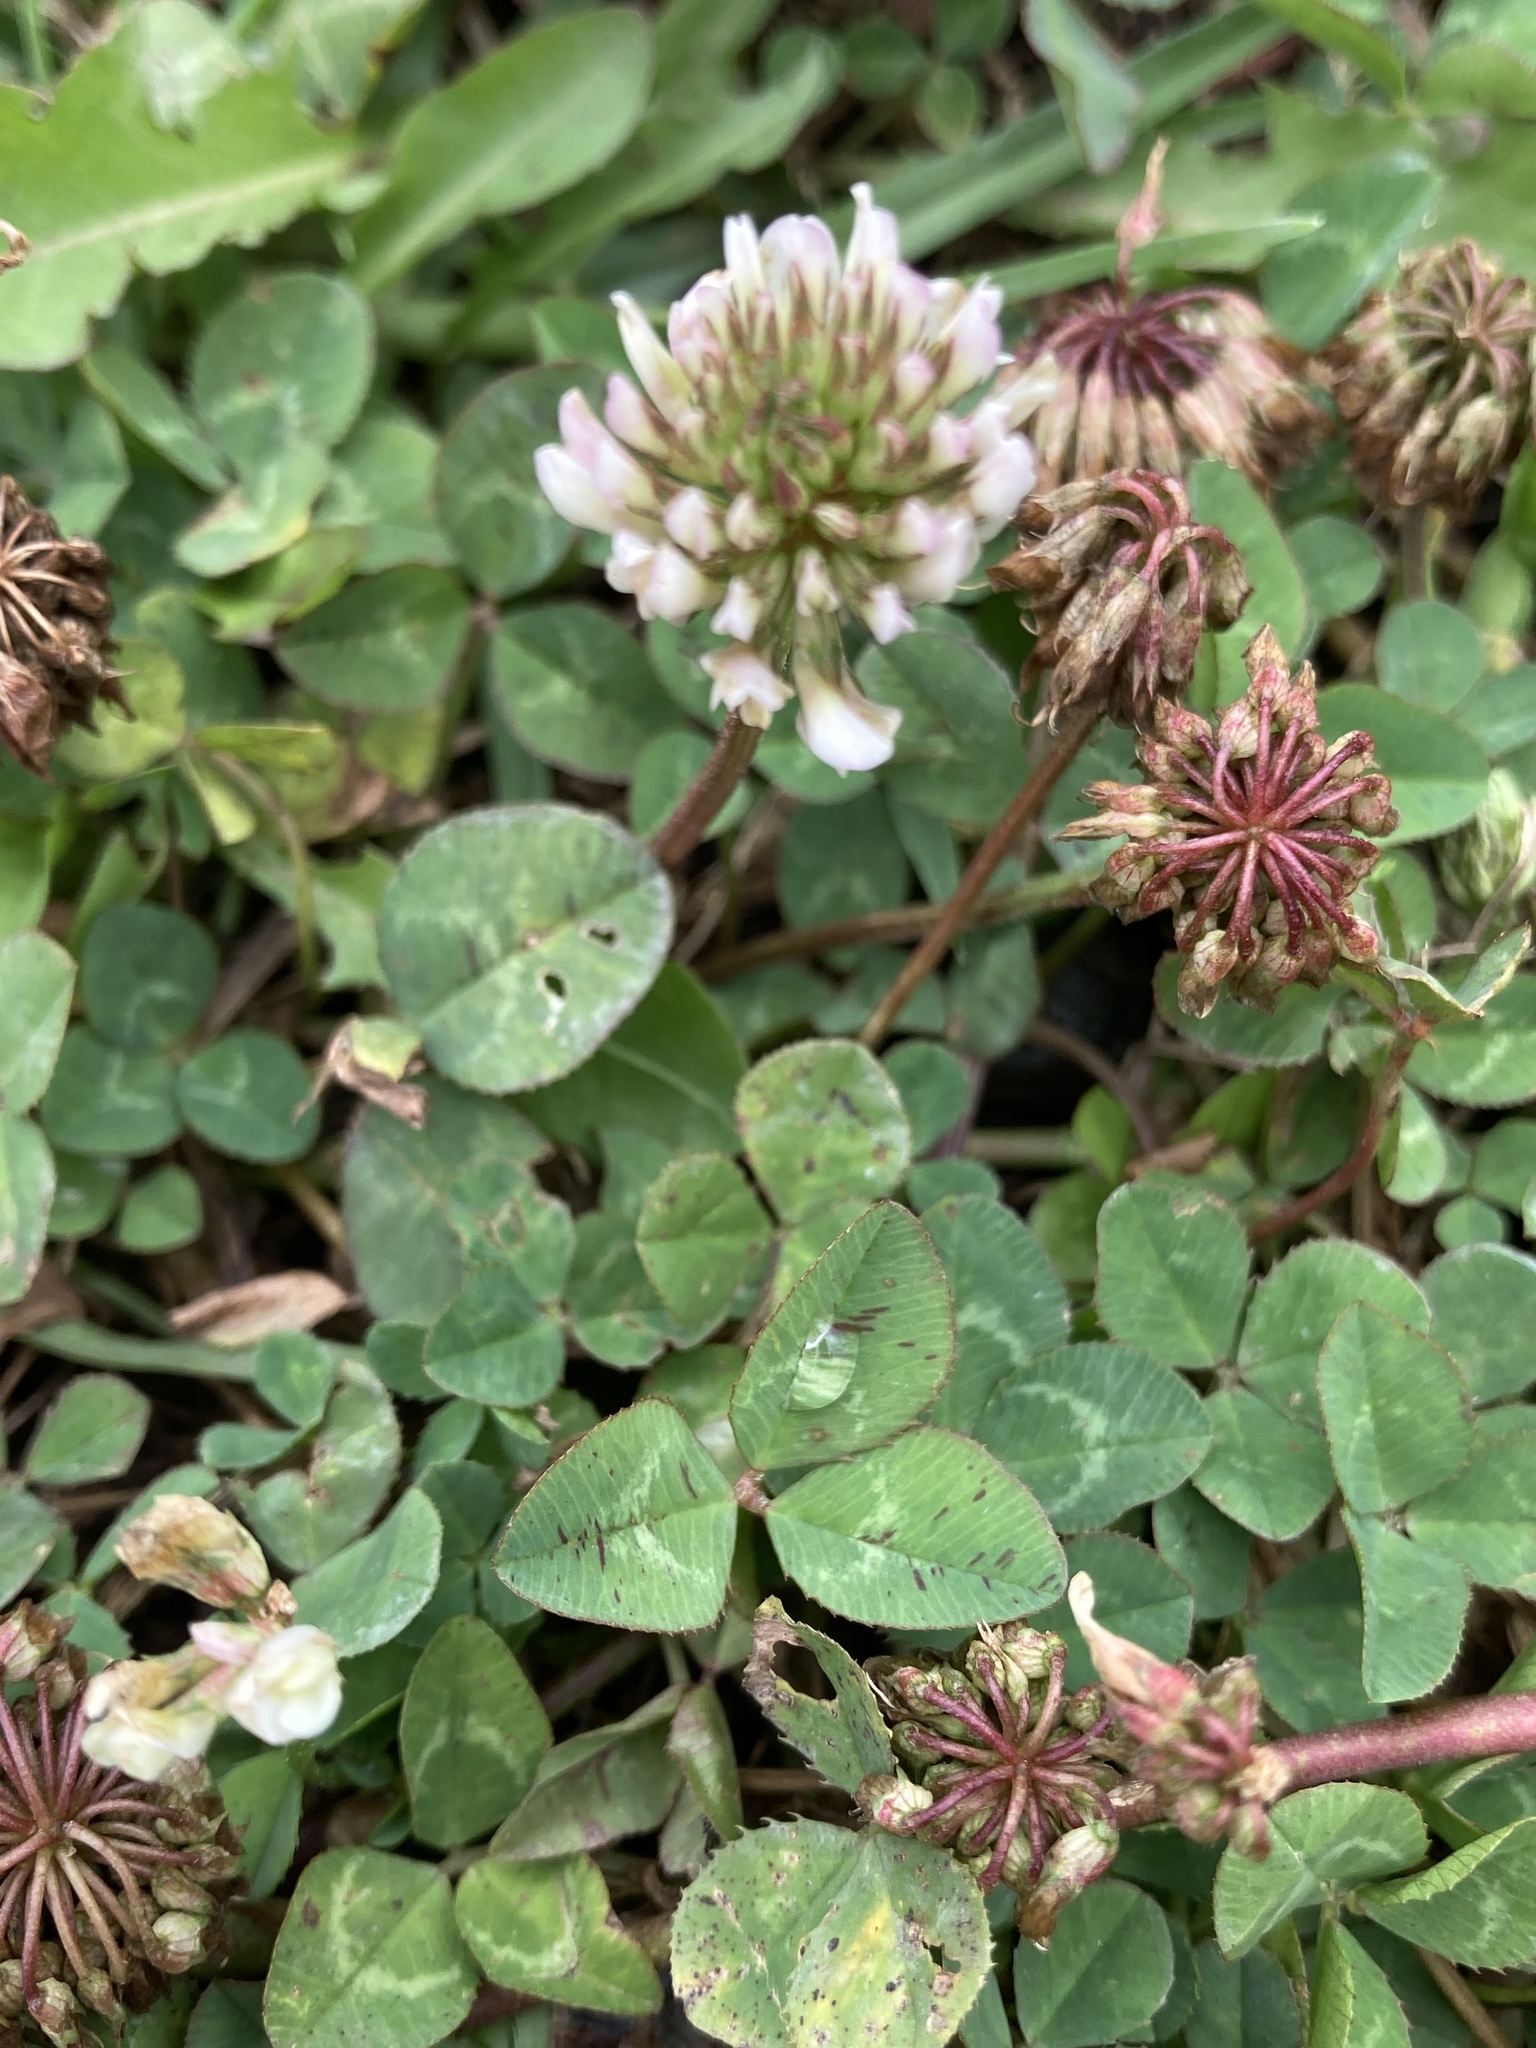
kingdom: Plantae
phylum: Tracheophyta
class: Magnoliopsida
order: Fabales
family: Fabaceae
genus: Trifolium
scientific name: Trifolium repens
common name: White clover
